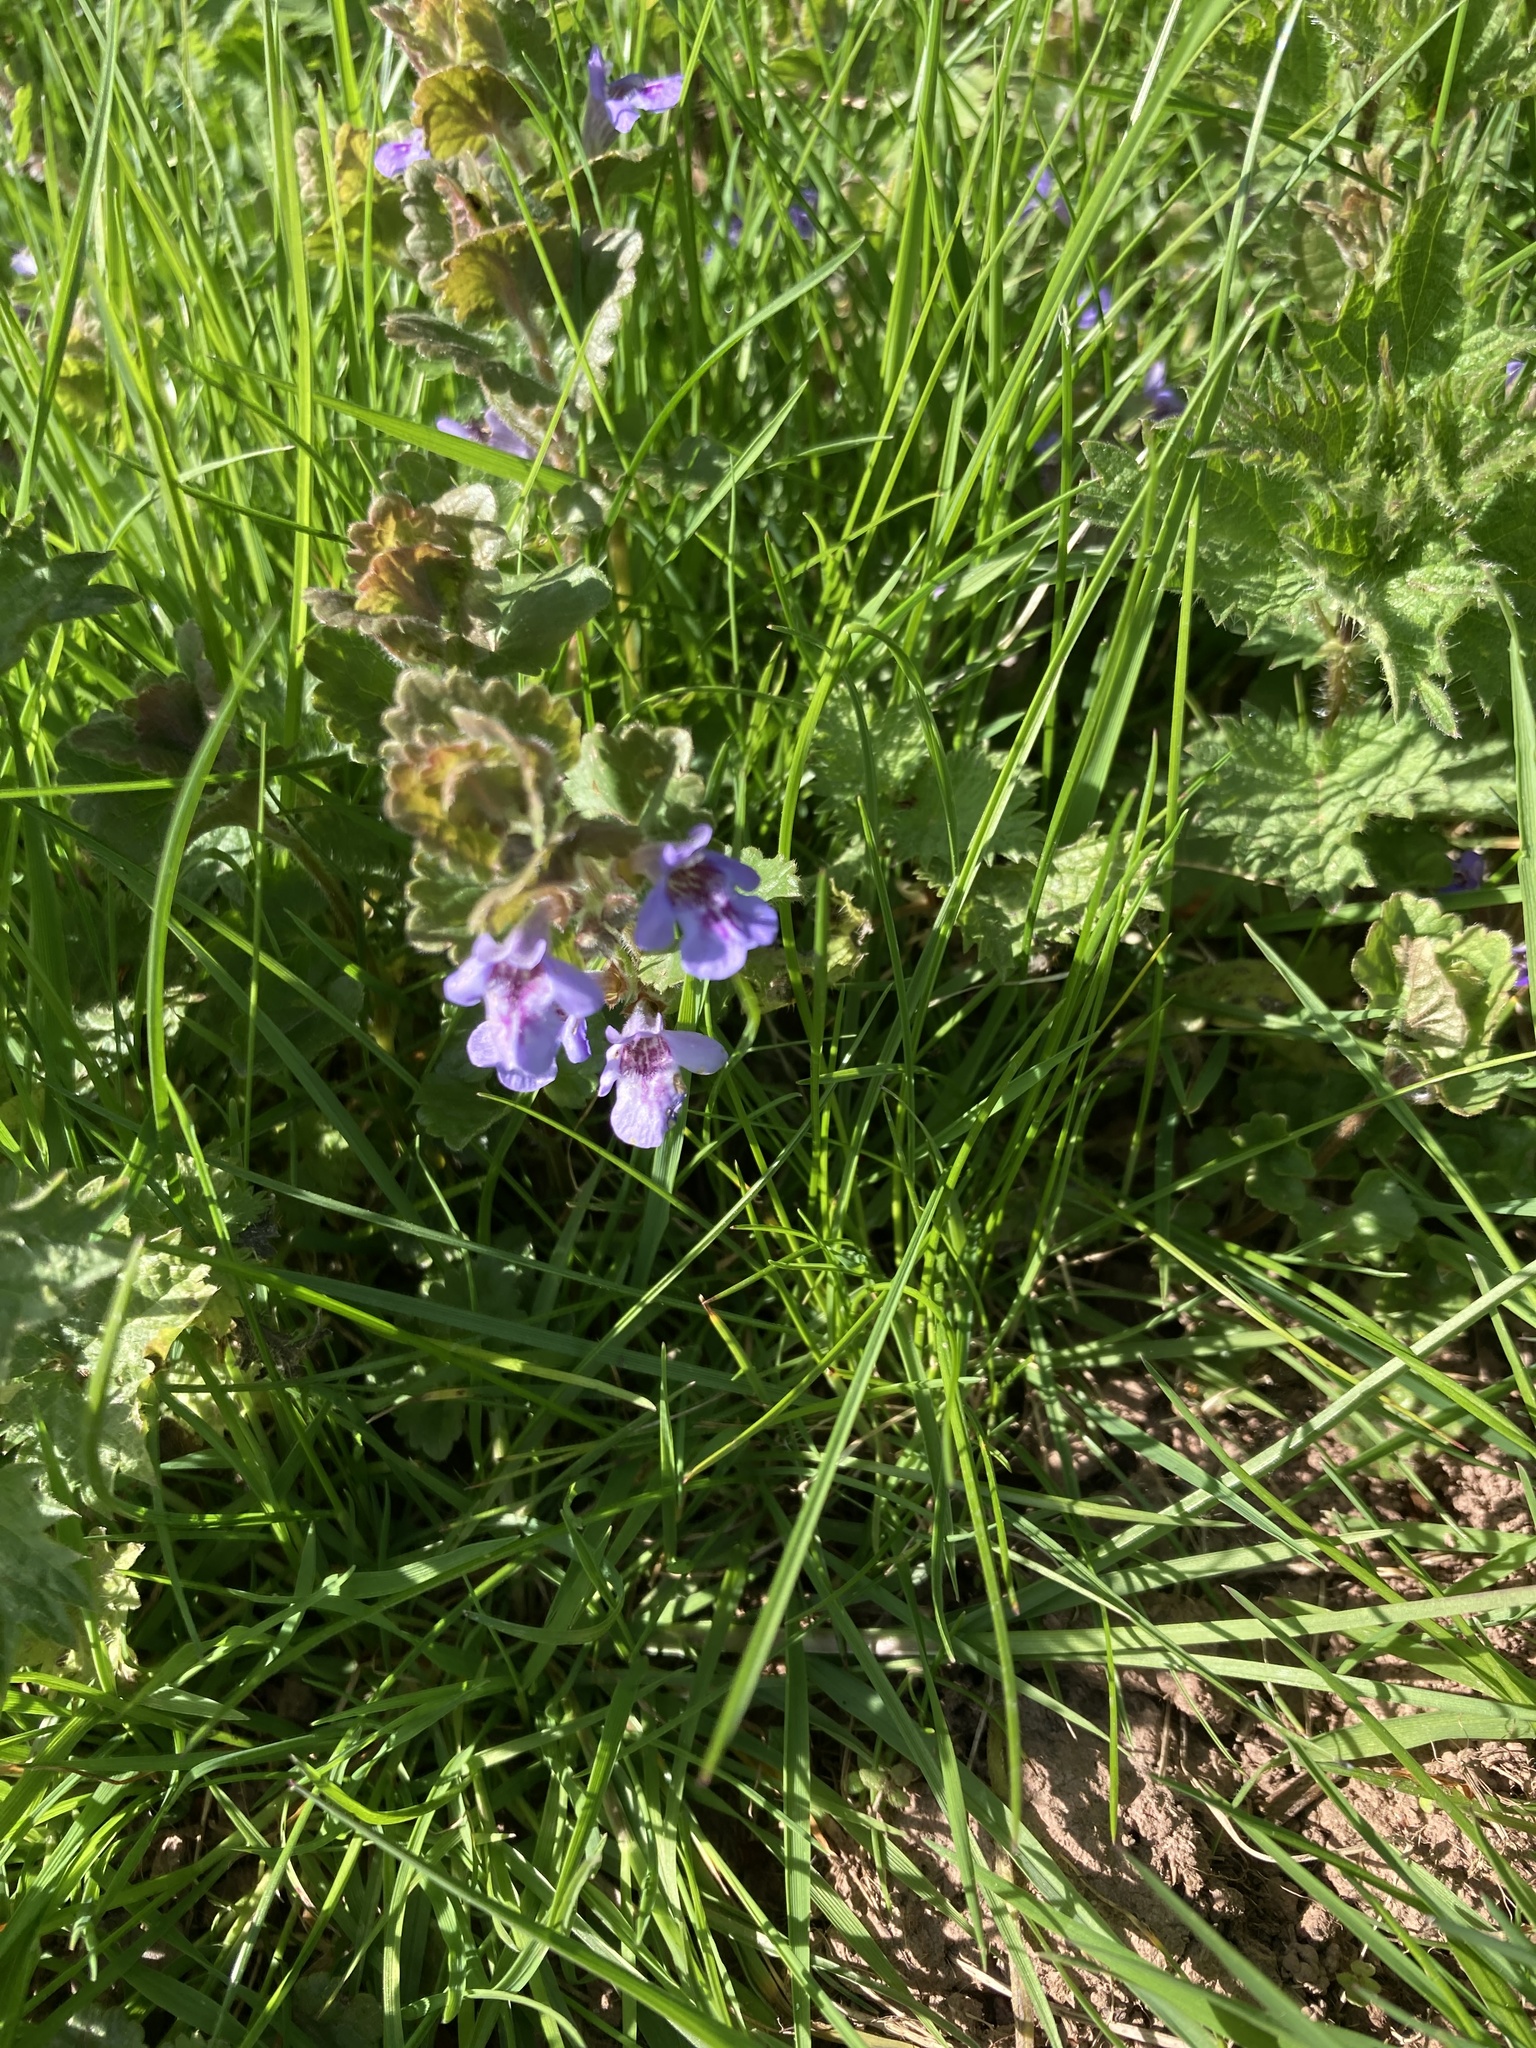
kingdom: Plantae
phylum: Tracheophyta
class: Magnoliopsida
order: Lamiales
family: Lamiaceae
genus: Glechoma
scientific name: Glechoma hederacea
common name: Ground ivy
